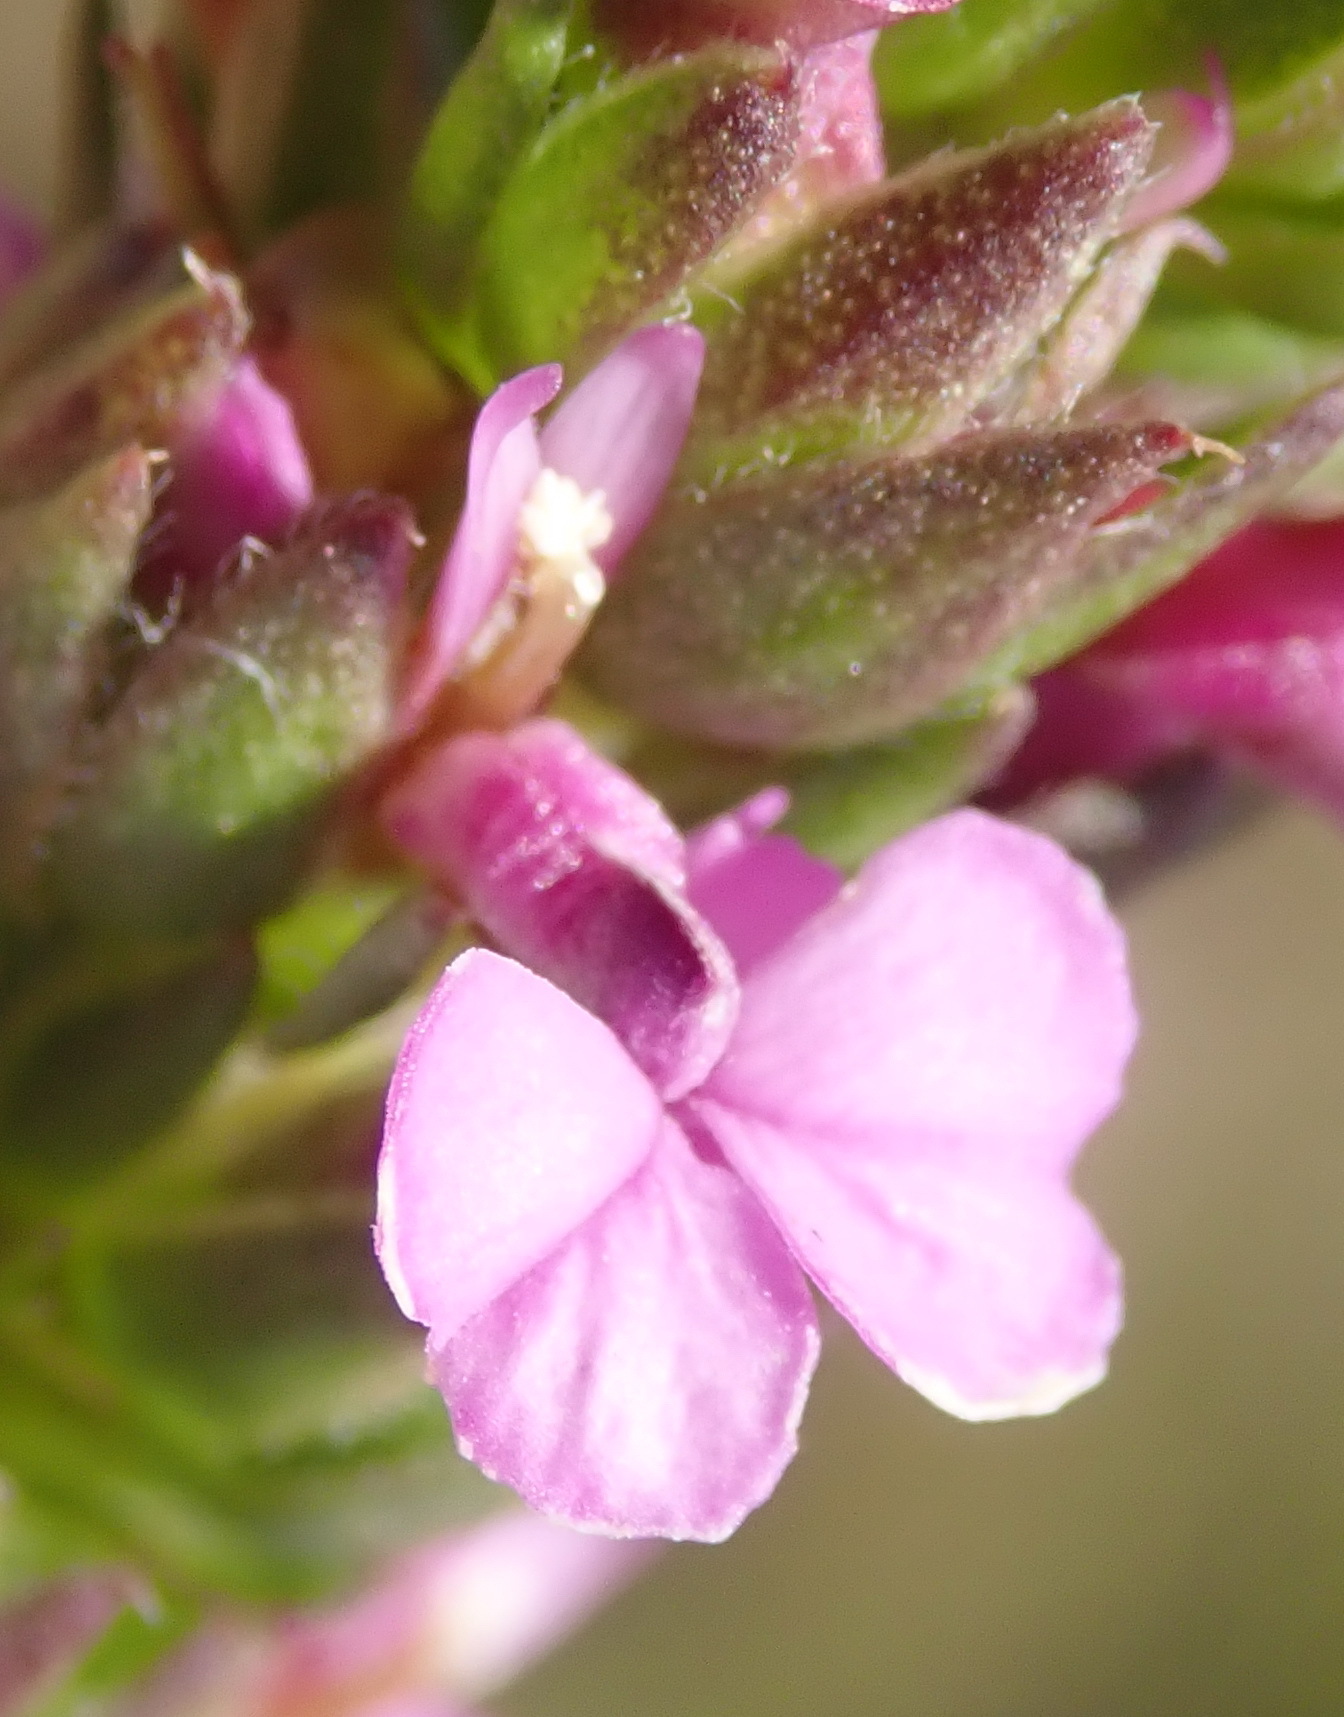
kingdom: Plantae
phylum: Tracheophyta
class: Magnoliopsida
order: Fabales
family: Polygalaceae
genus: Muraltia
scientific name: Muraltia squarrosa
